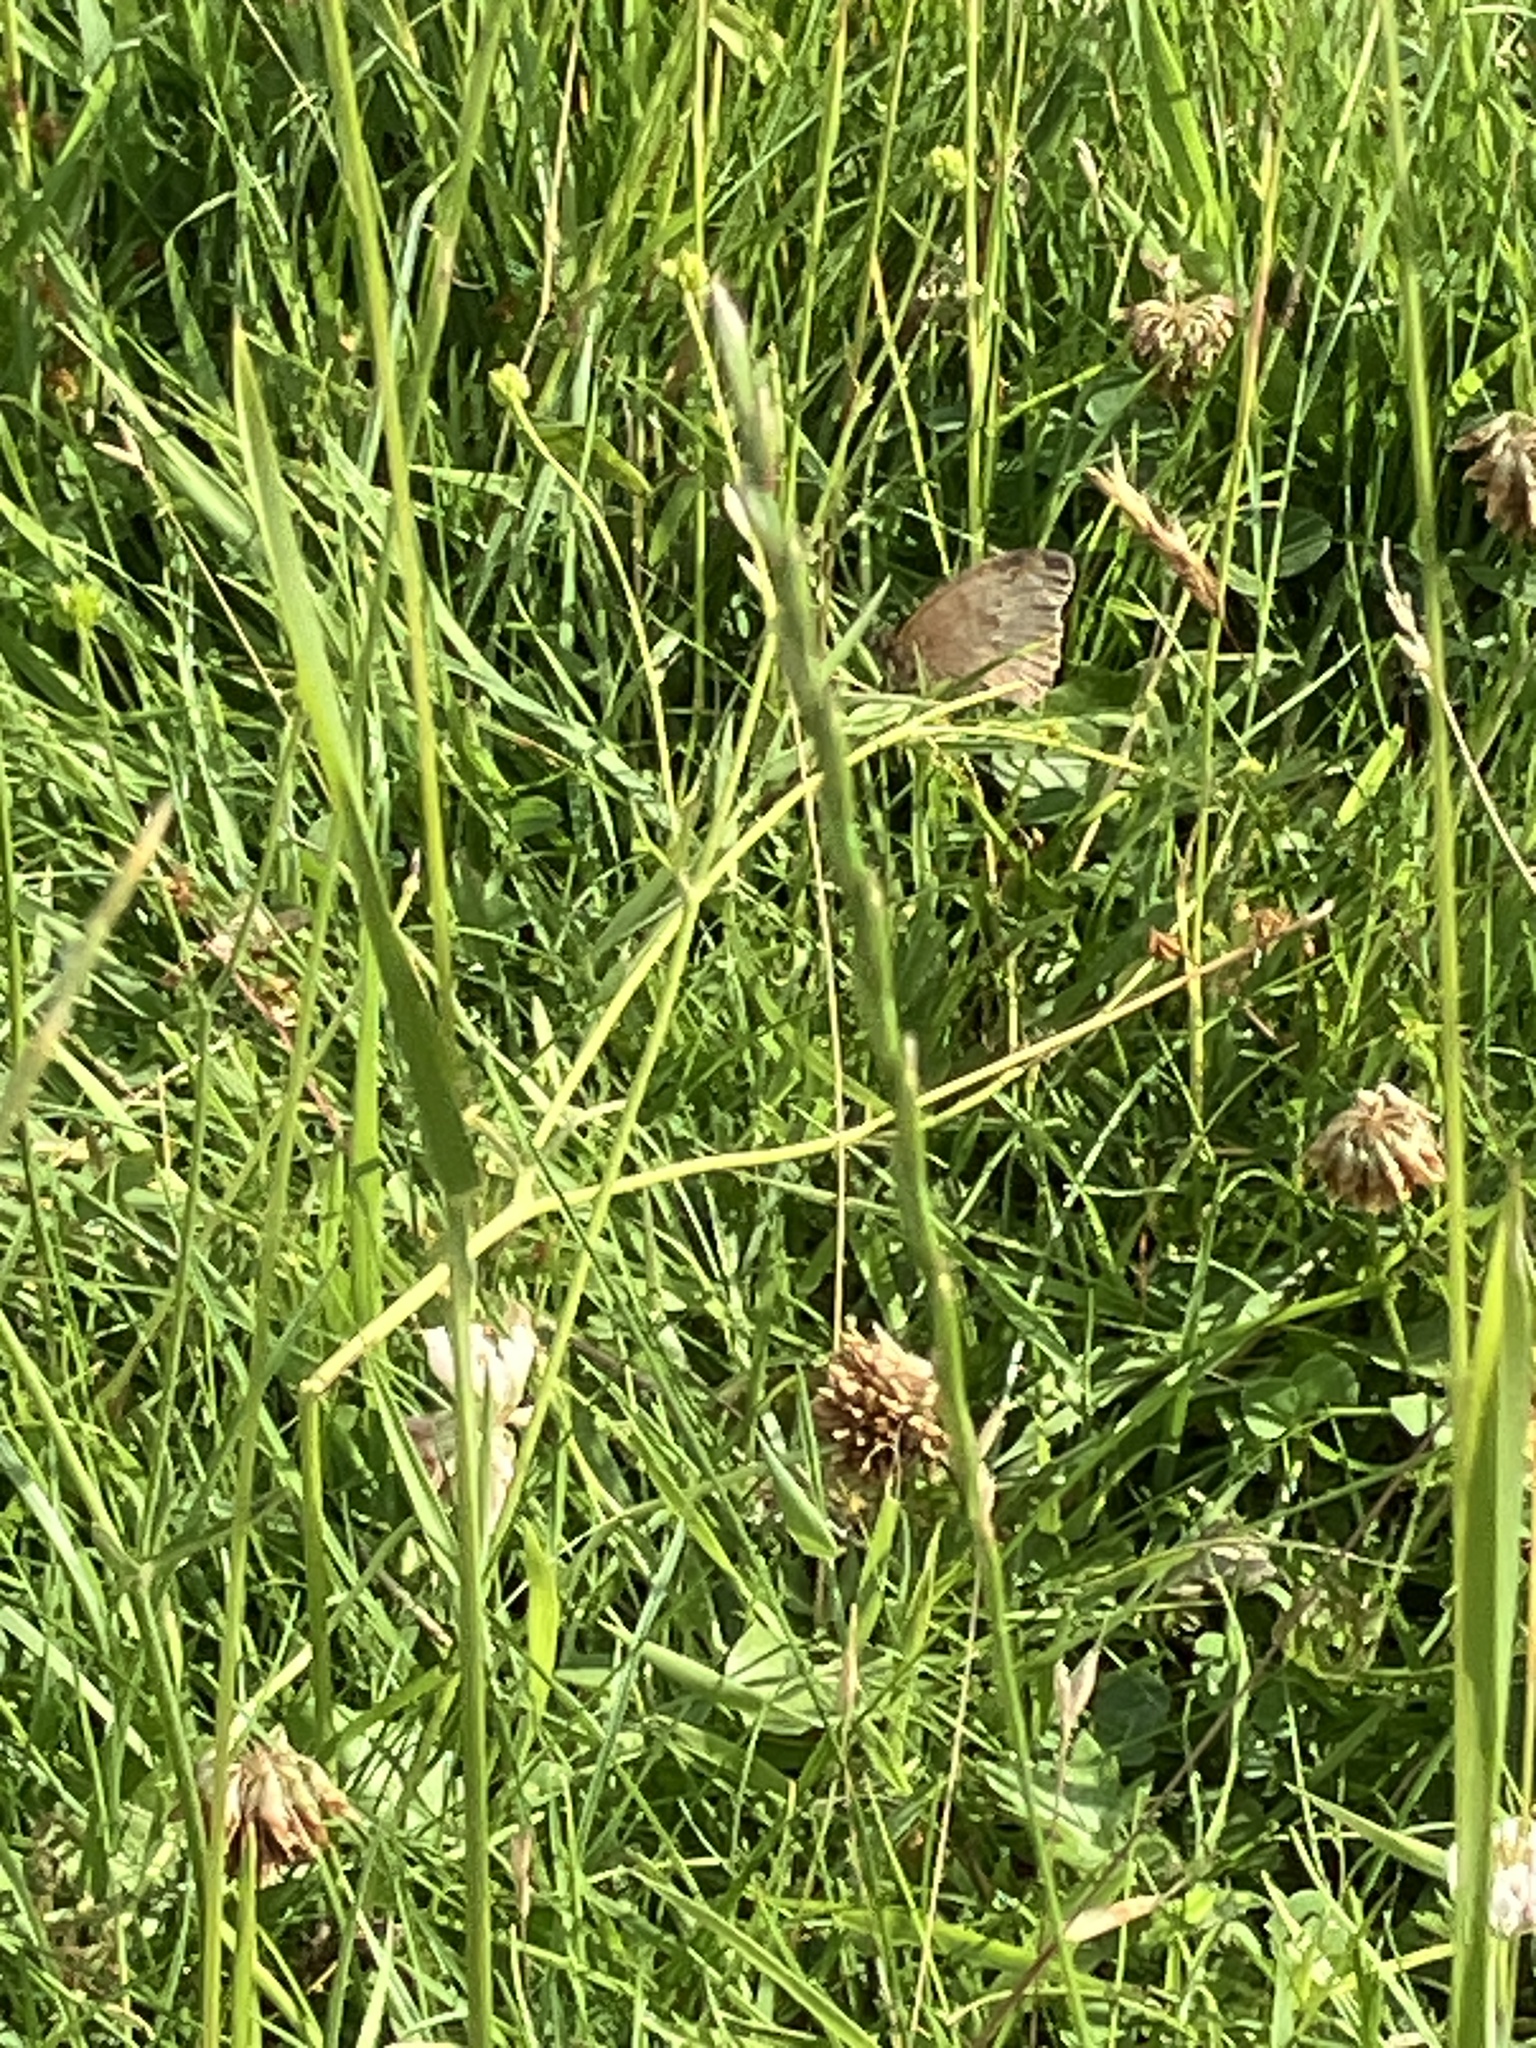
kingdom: Animalia
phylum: Arthropoda
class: Insecta
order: Lepidoptera
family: Nymphalidae
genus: Maniola
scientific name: Maniola jurtina
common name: Meadow brown
